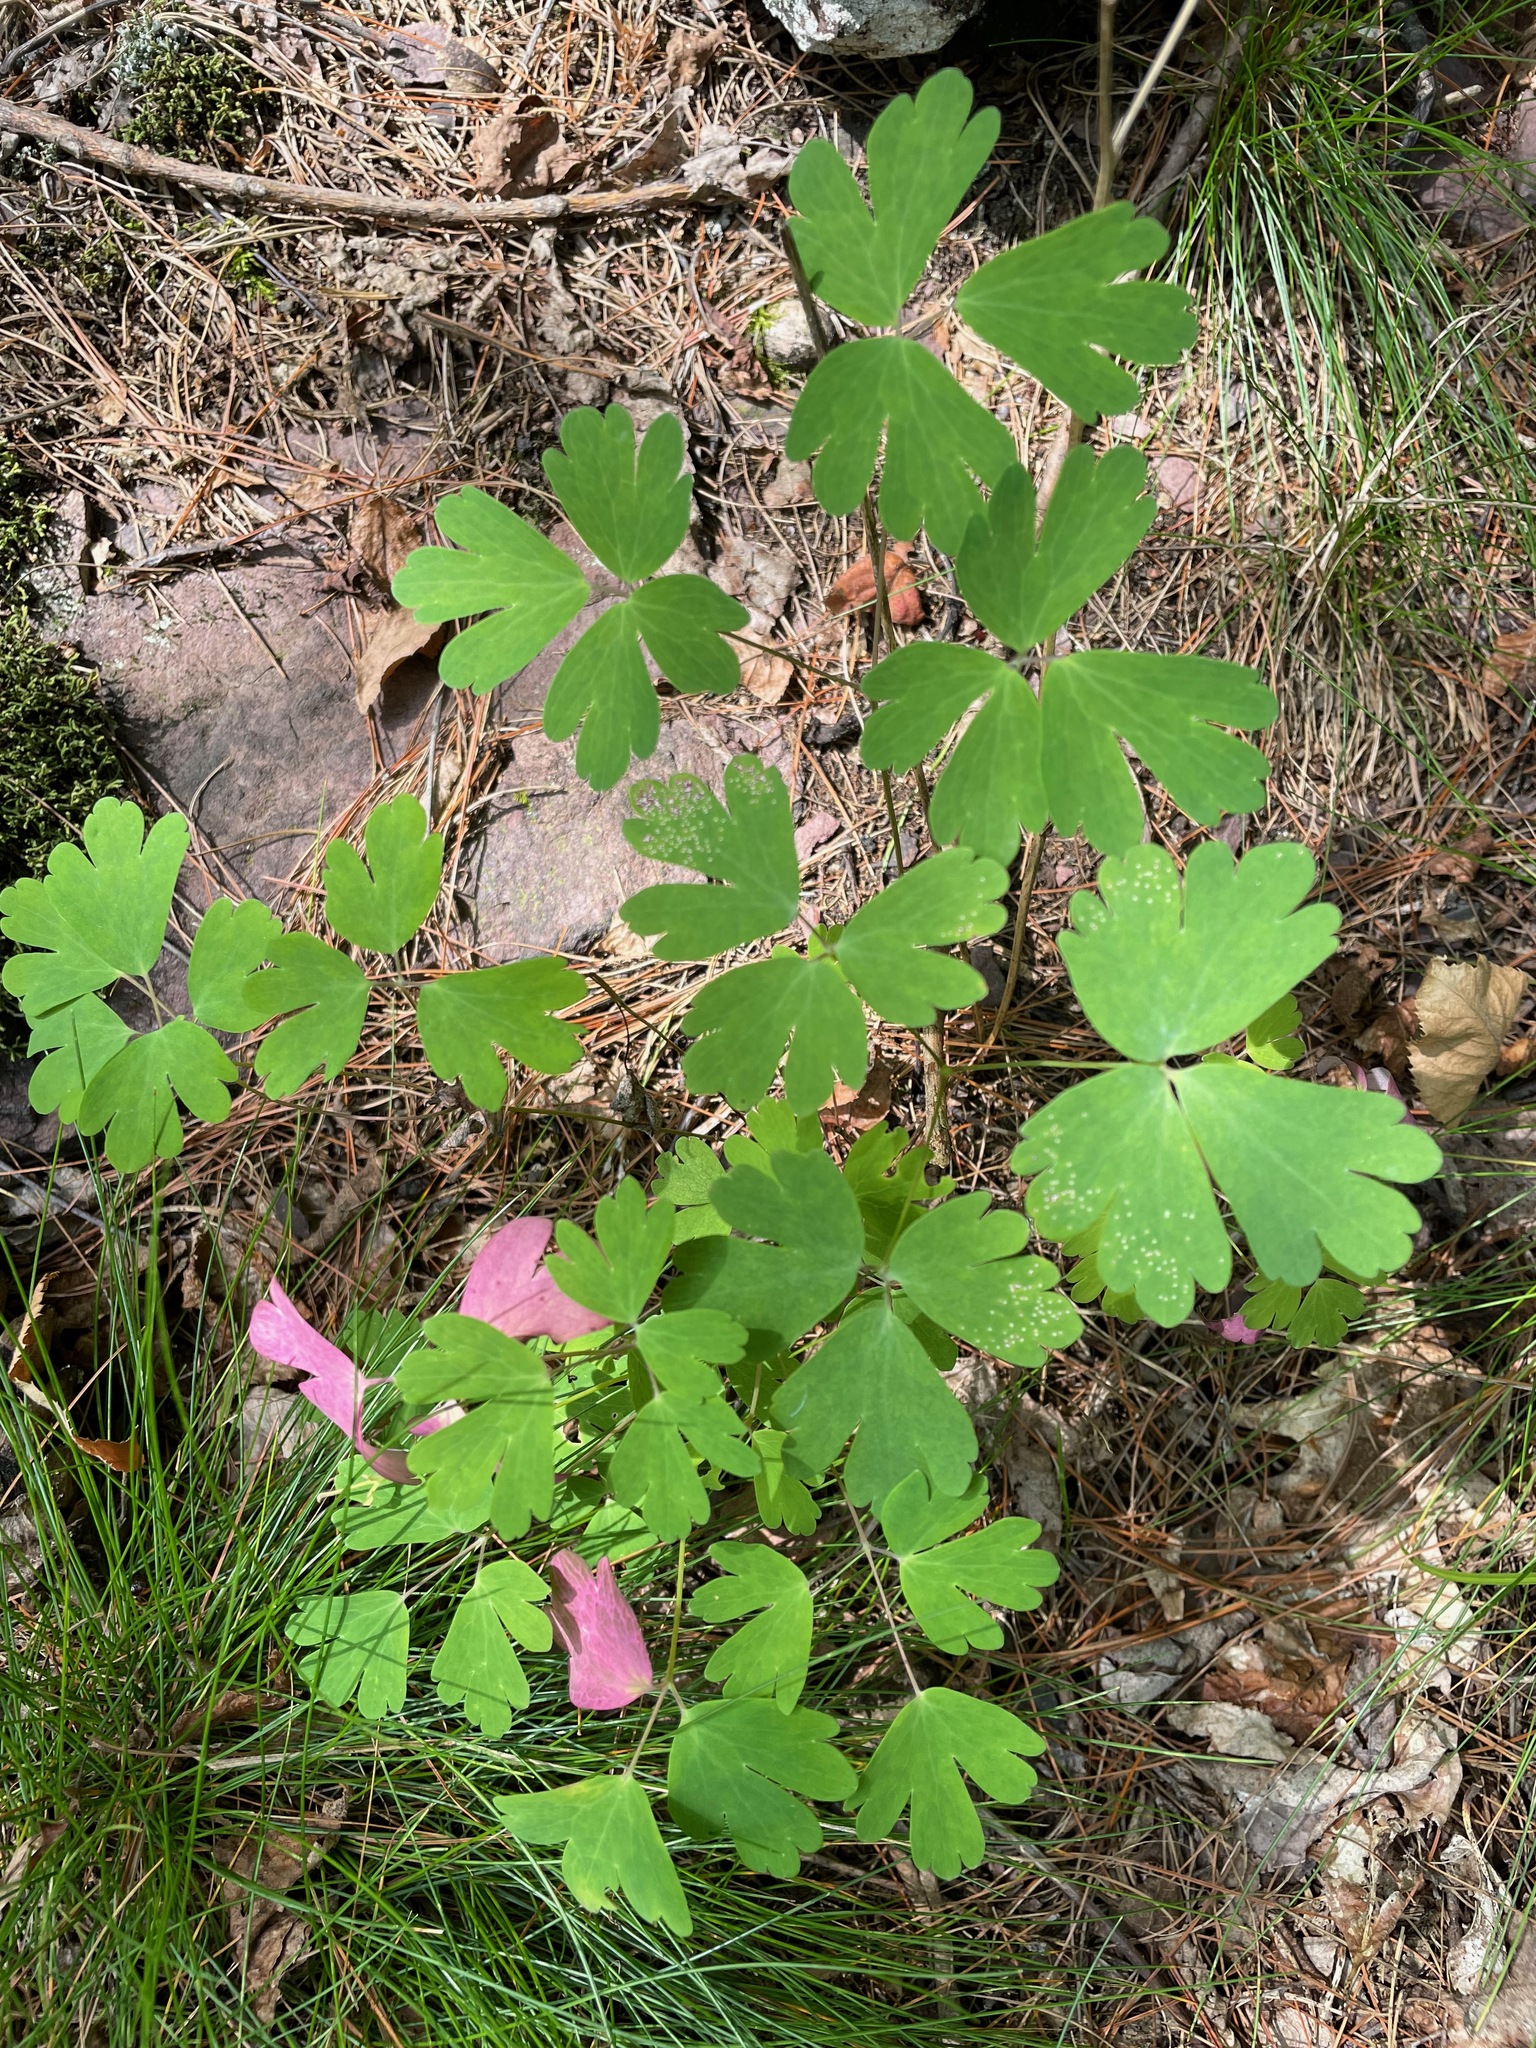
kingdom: Plantae
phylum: Tracheophyta
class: Magnoliopsida
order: Ranunculales
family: Ranunculaceae
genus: Aquilegia
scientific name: Aquilegia canadensis
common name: American columbine
